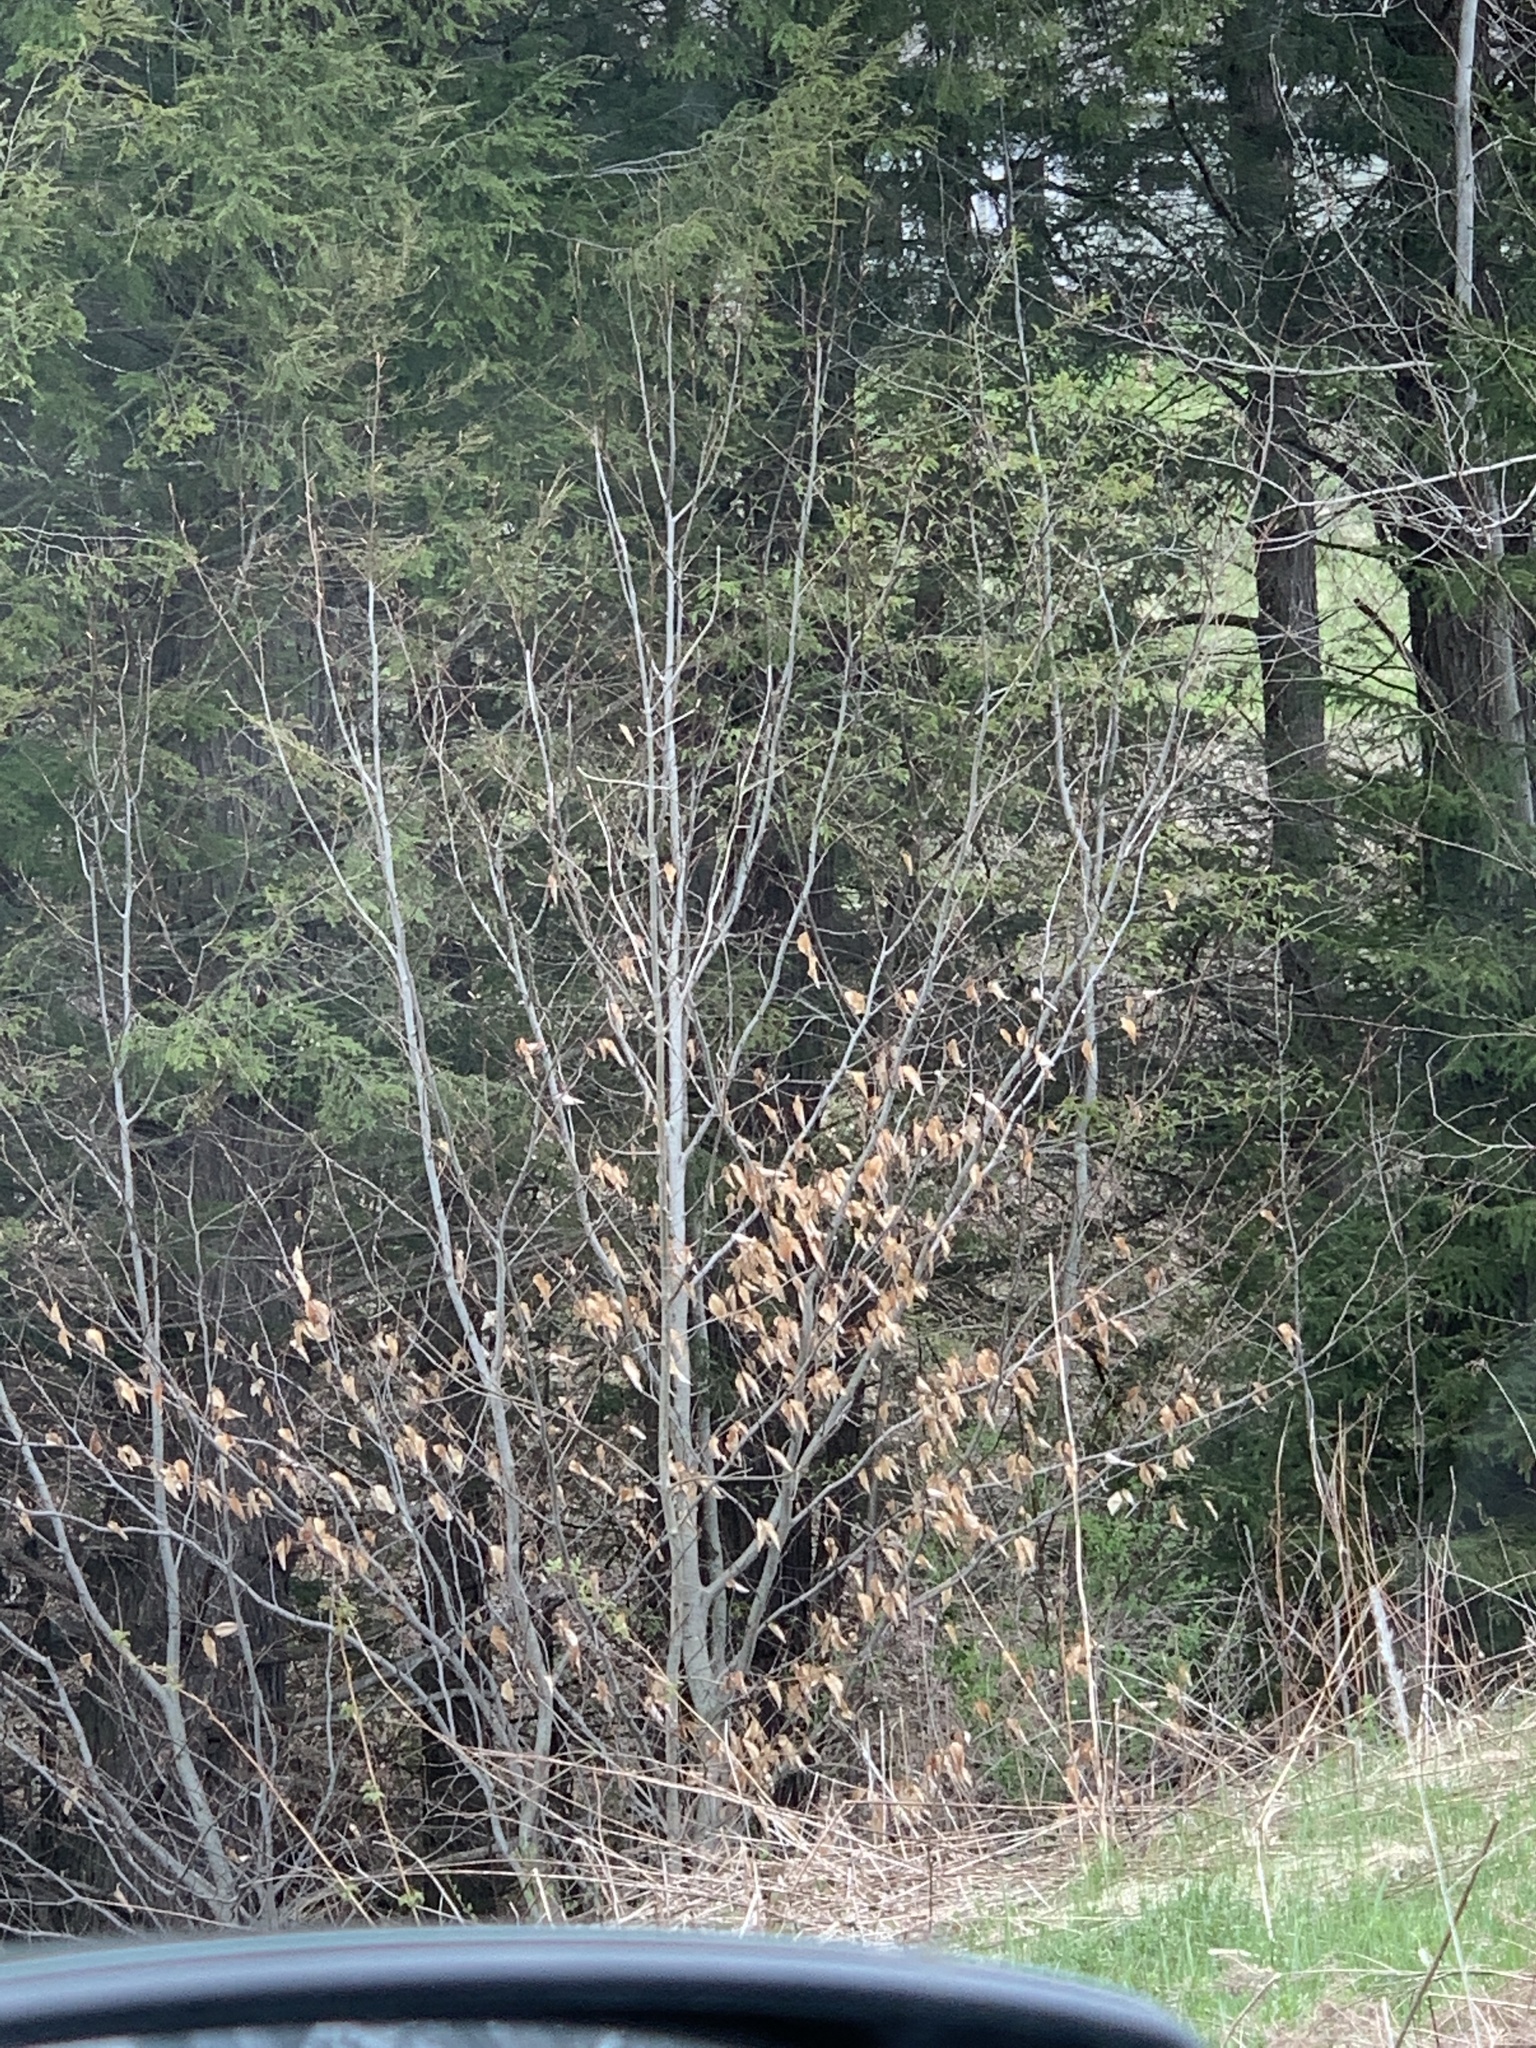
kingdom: Plantae
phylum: Tracheophyta
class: Magnoliopsida
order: Fagales
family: Fagaceae
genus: Fagus
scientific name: Fagus grandifolia
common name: American beech
